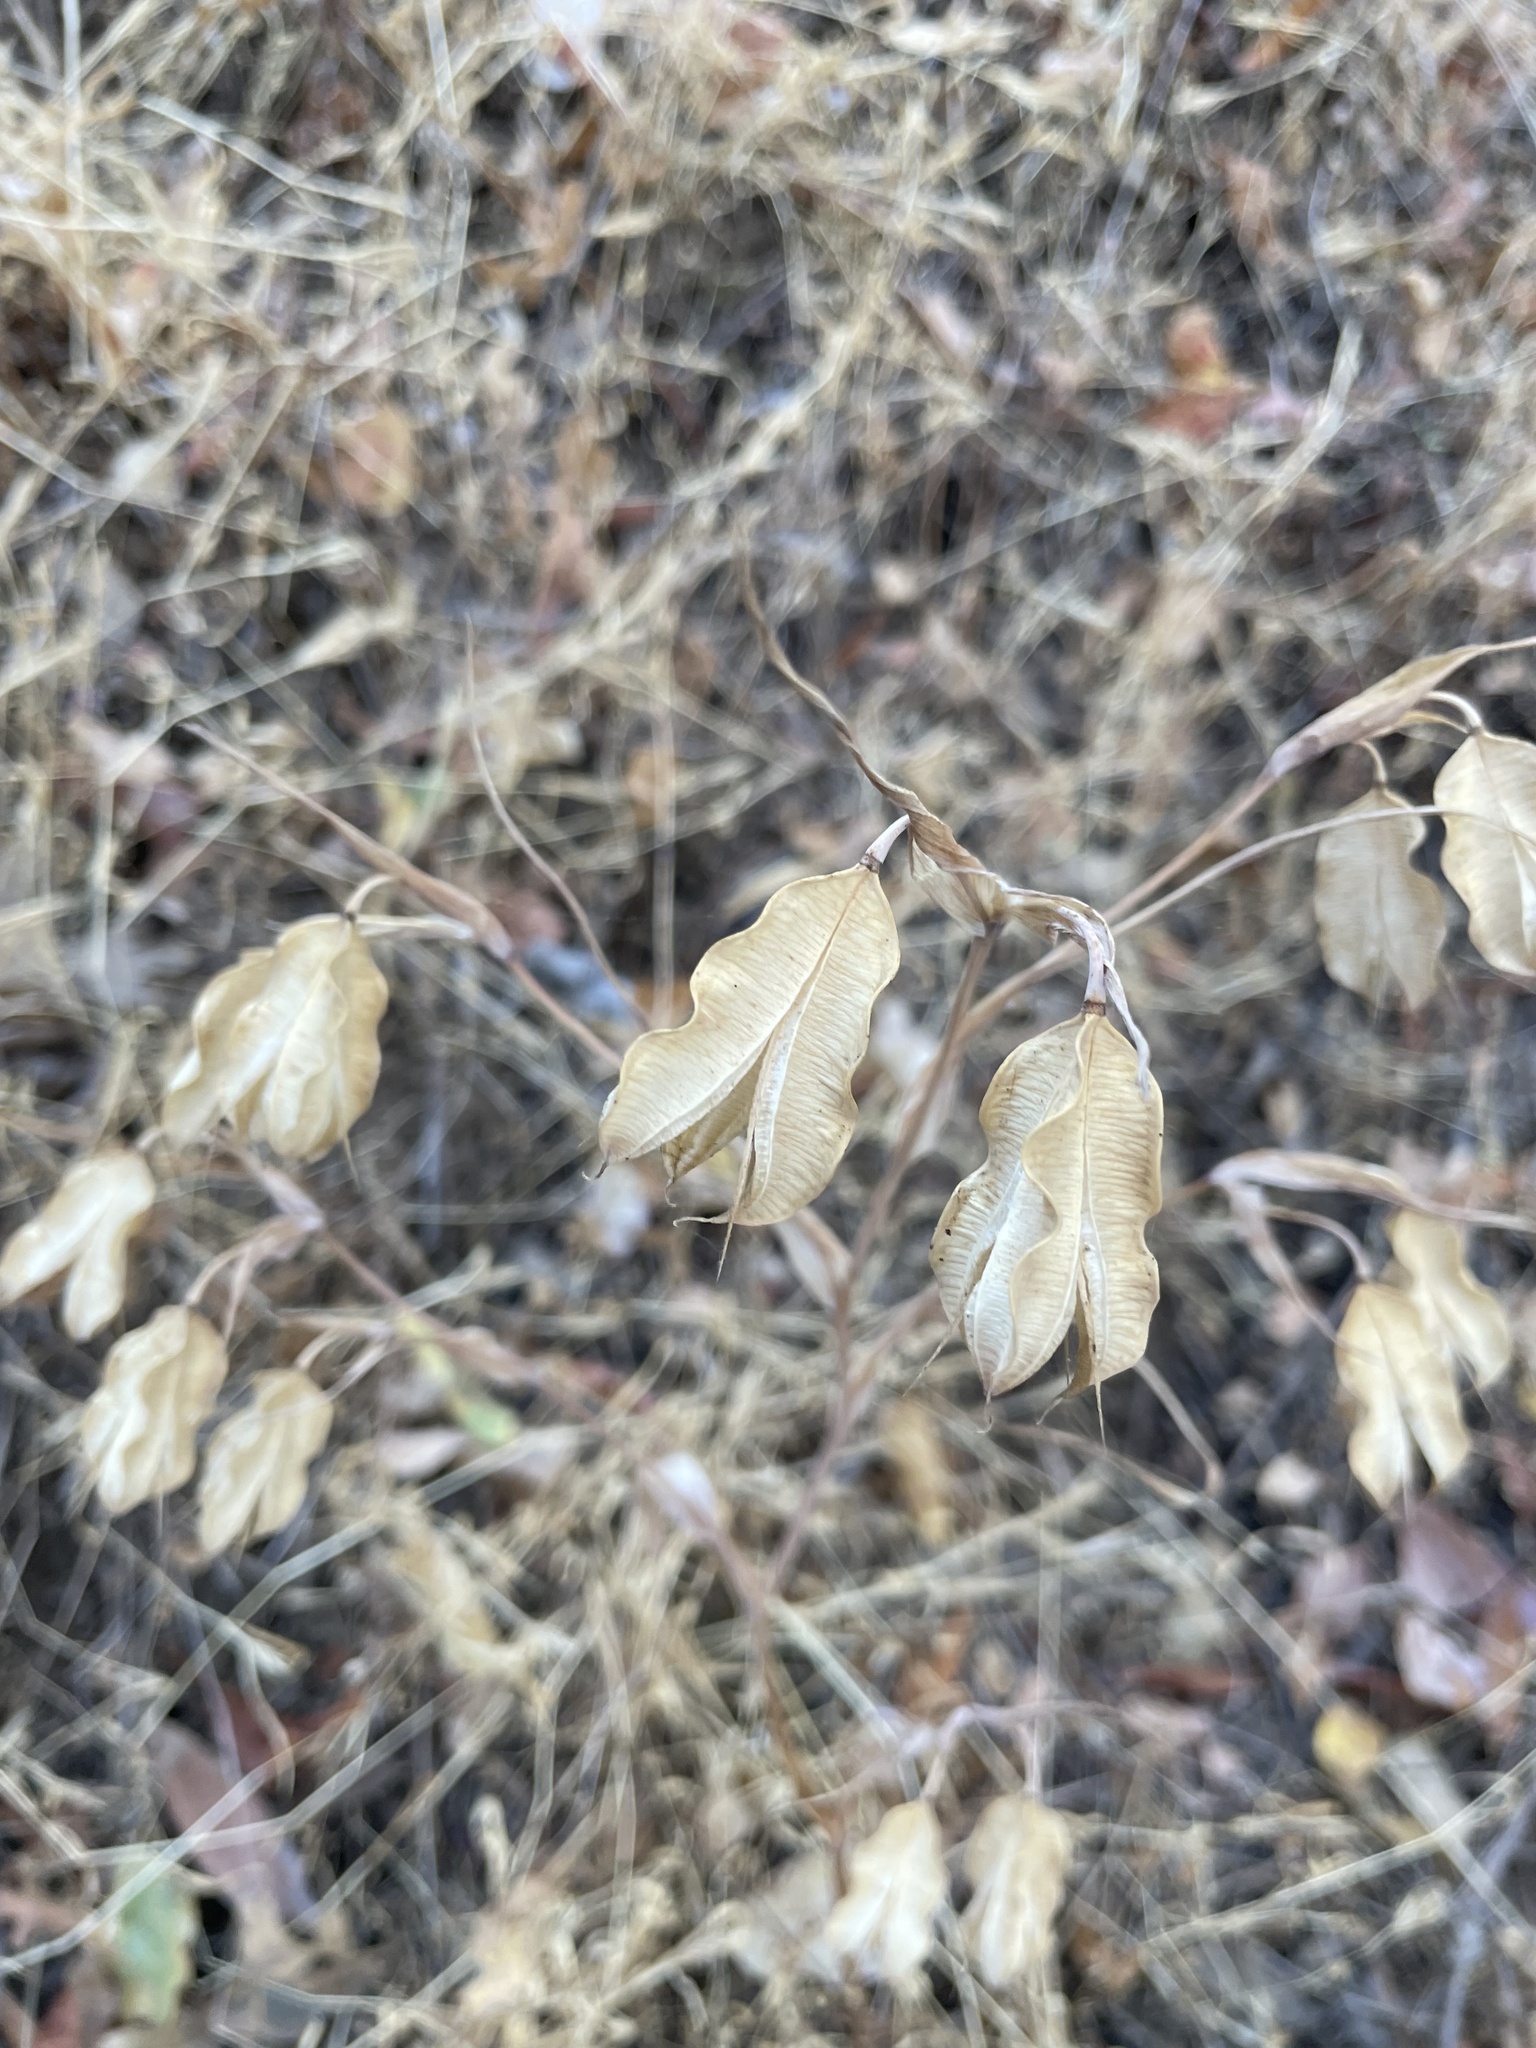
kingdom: Plantae
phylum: Tracheophyta
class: Liliopsida
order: Liliales
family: Liliaceae
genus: Calochortus
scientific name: Calochortus albus
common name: Fairy-lantern
